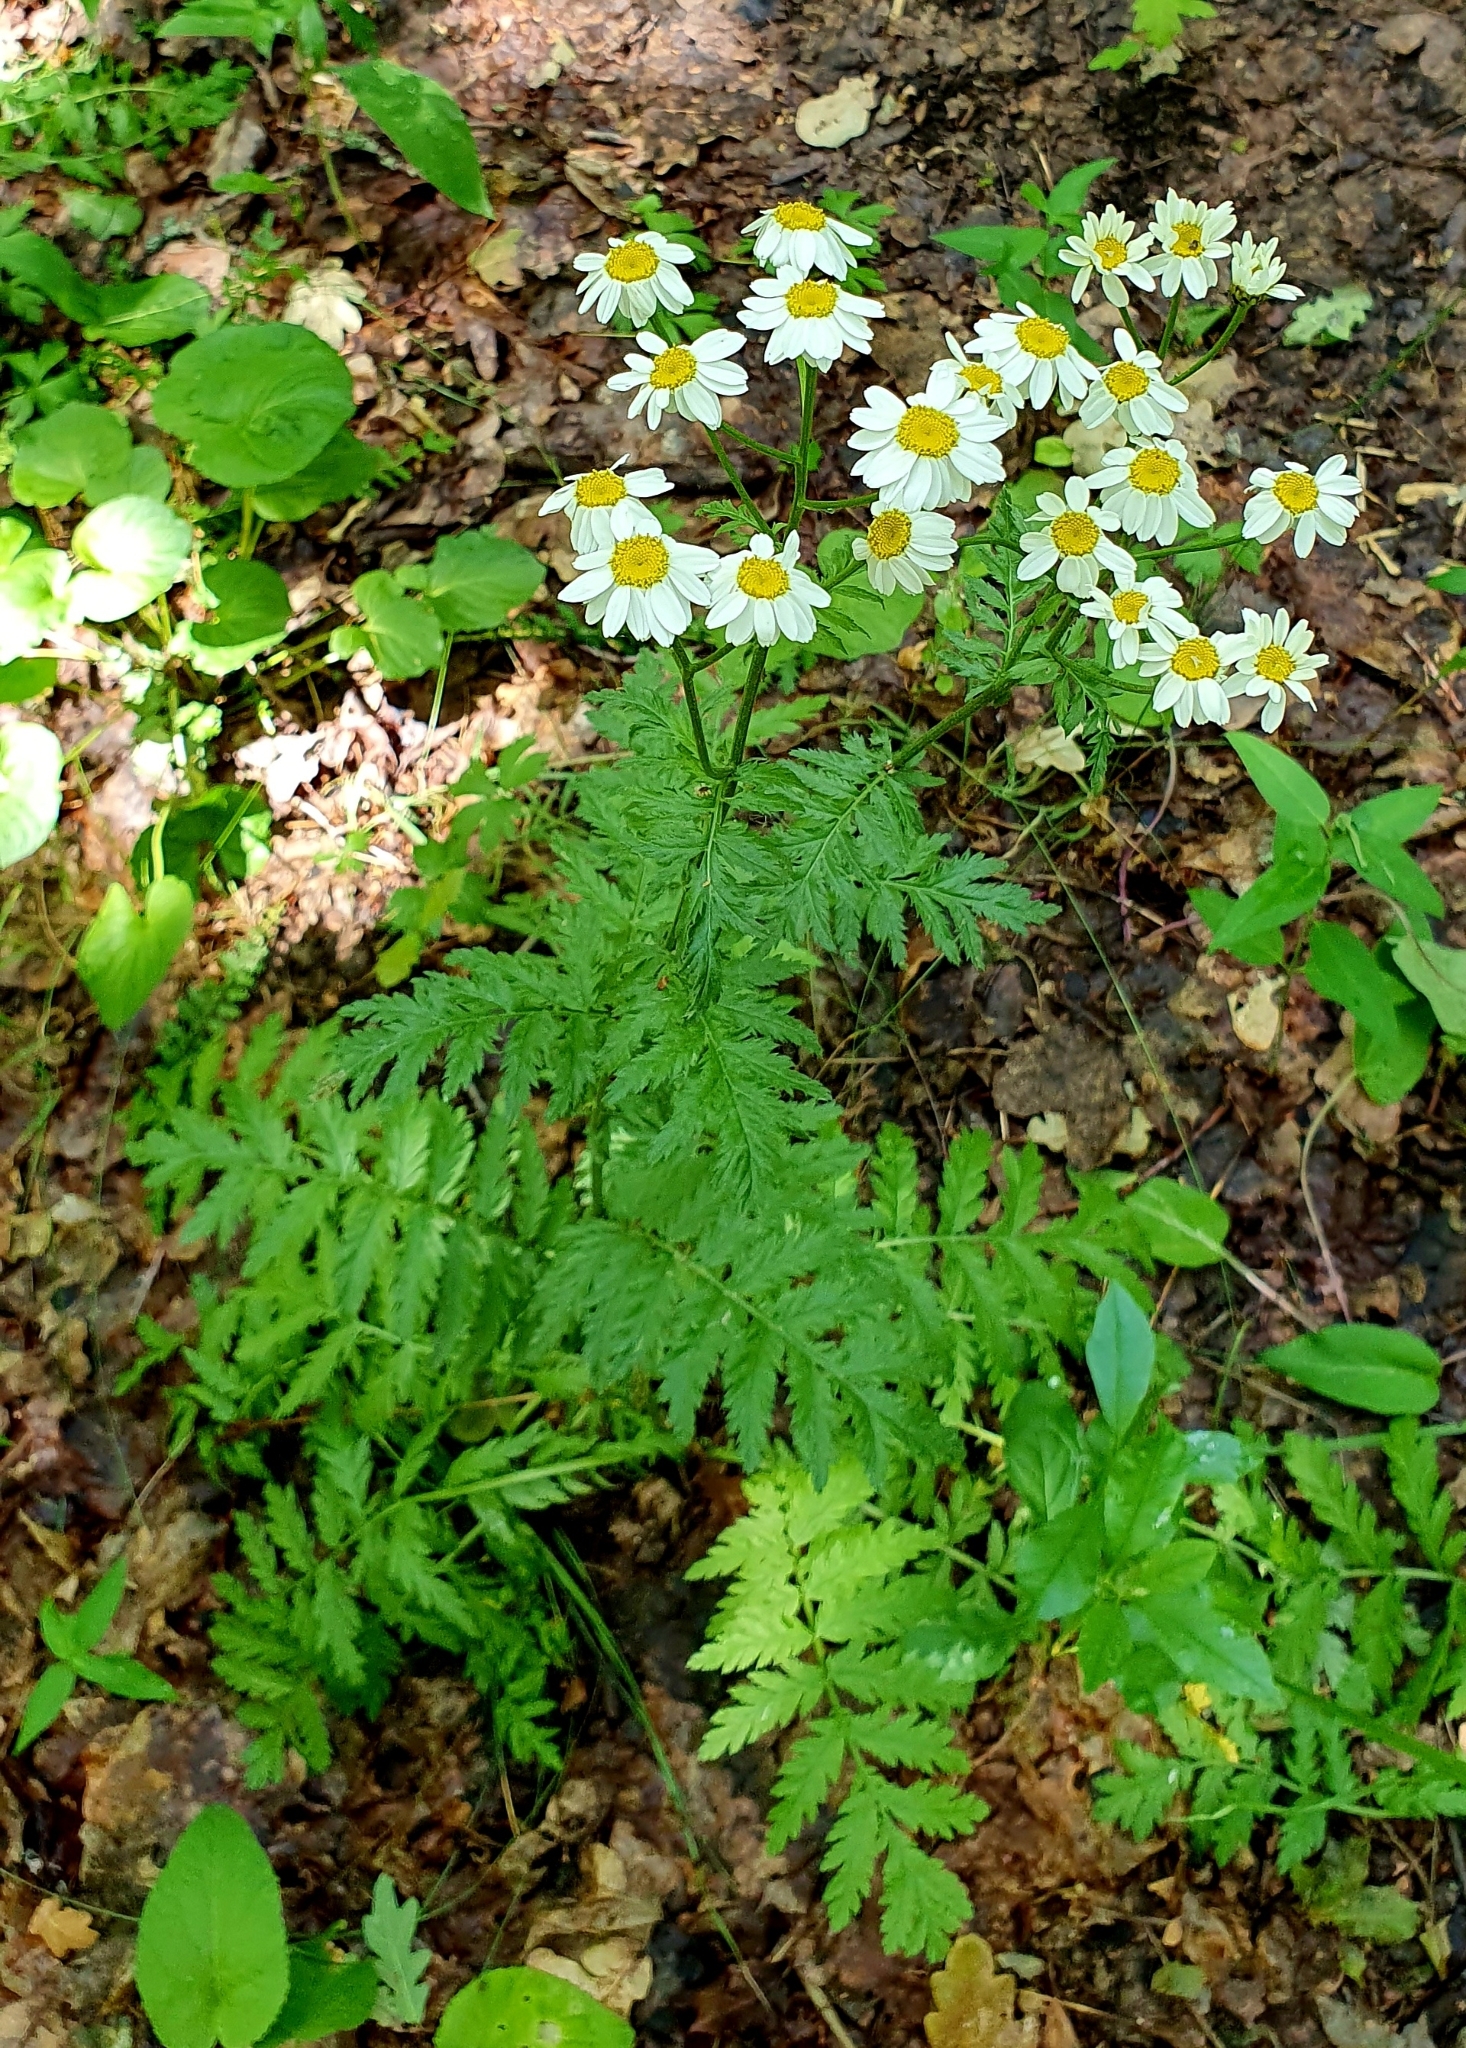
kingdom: Plantae
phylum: Tracheophyta
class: Magnoliopsida
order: Asterales
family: Asteraceae
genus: Tanacetum
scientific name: Tanacetum corymbosum
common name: Scentless feverfew
